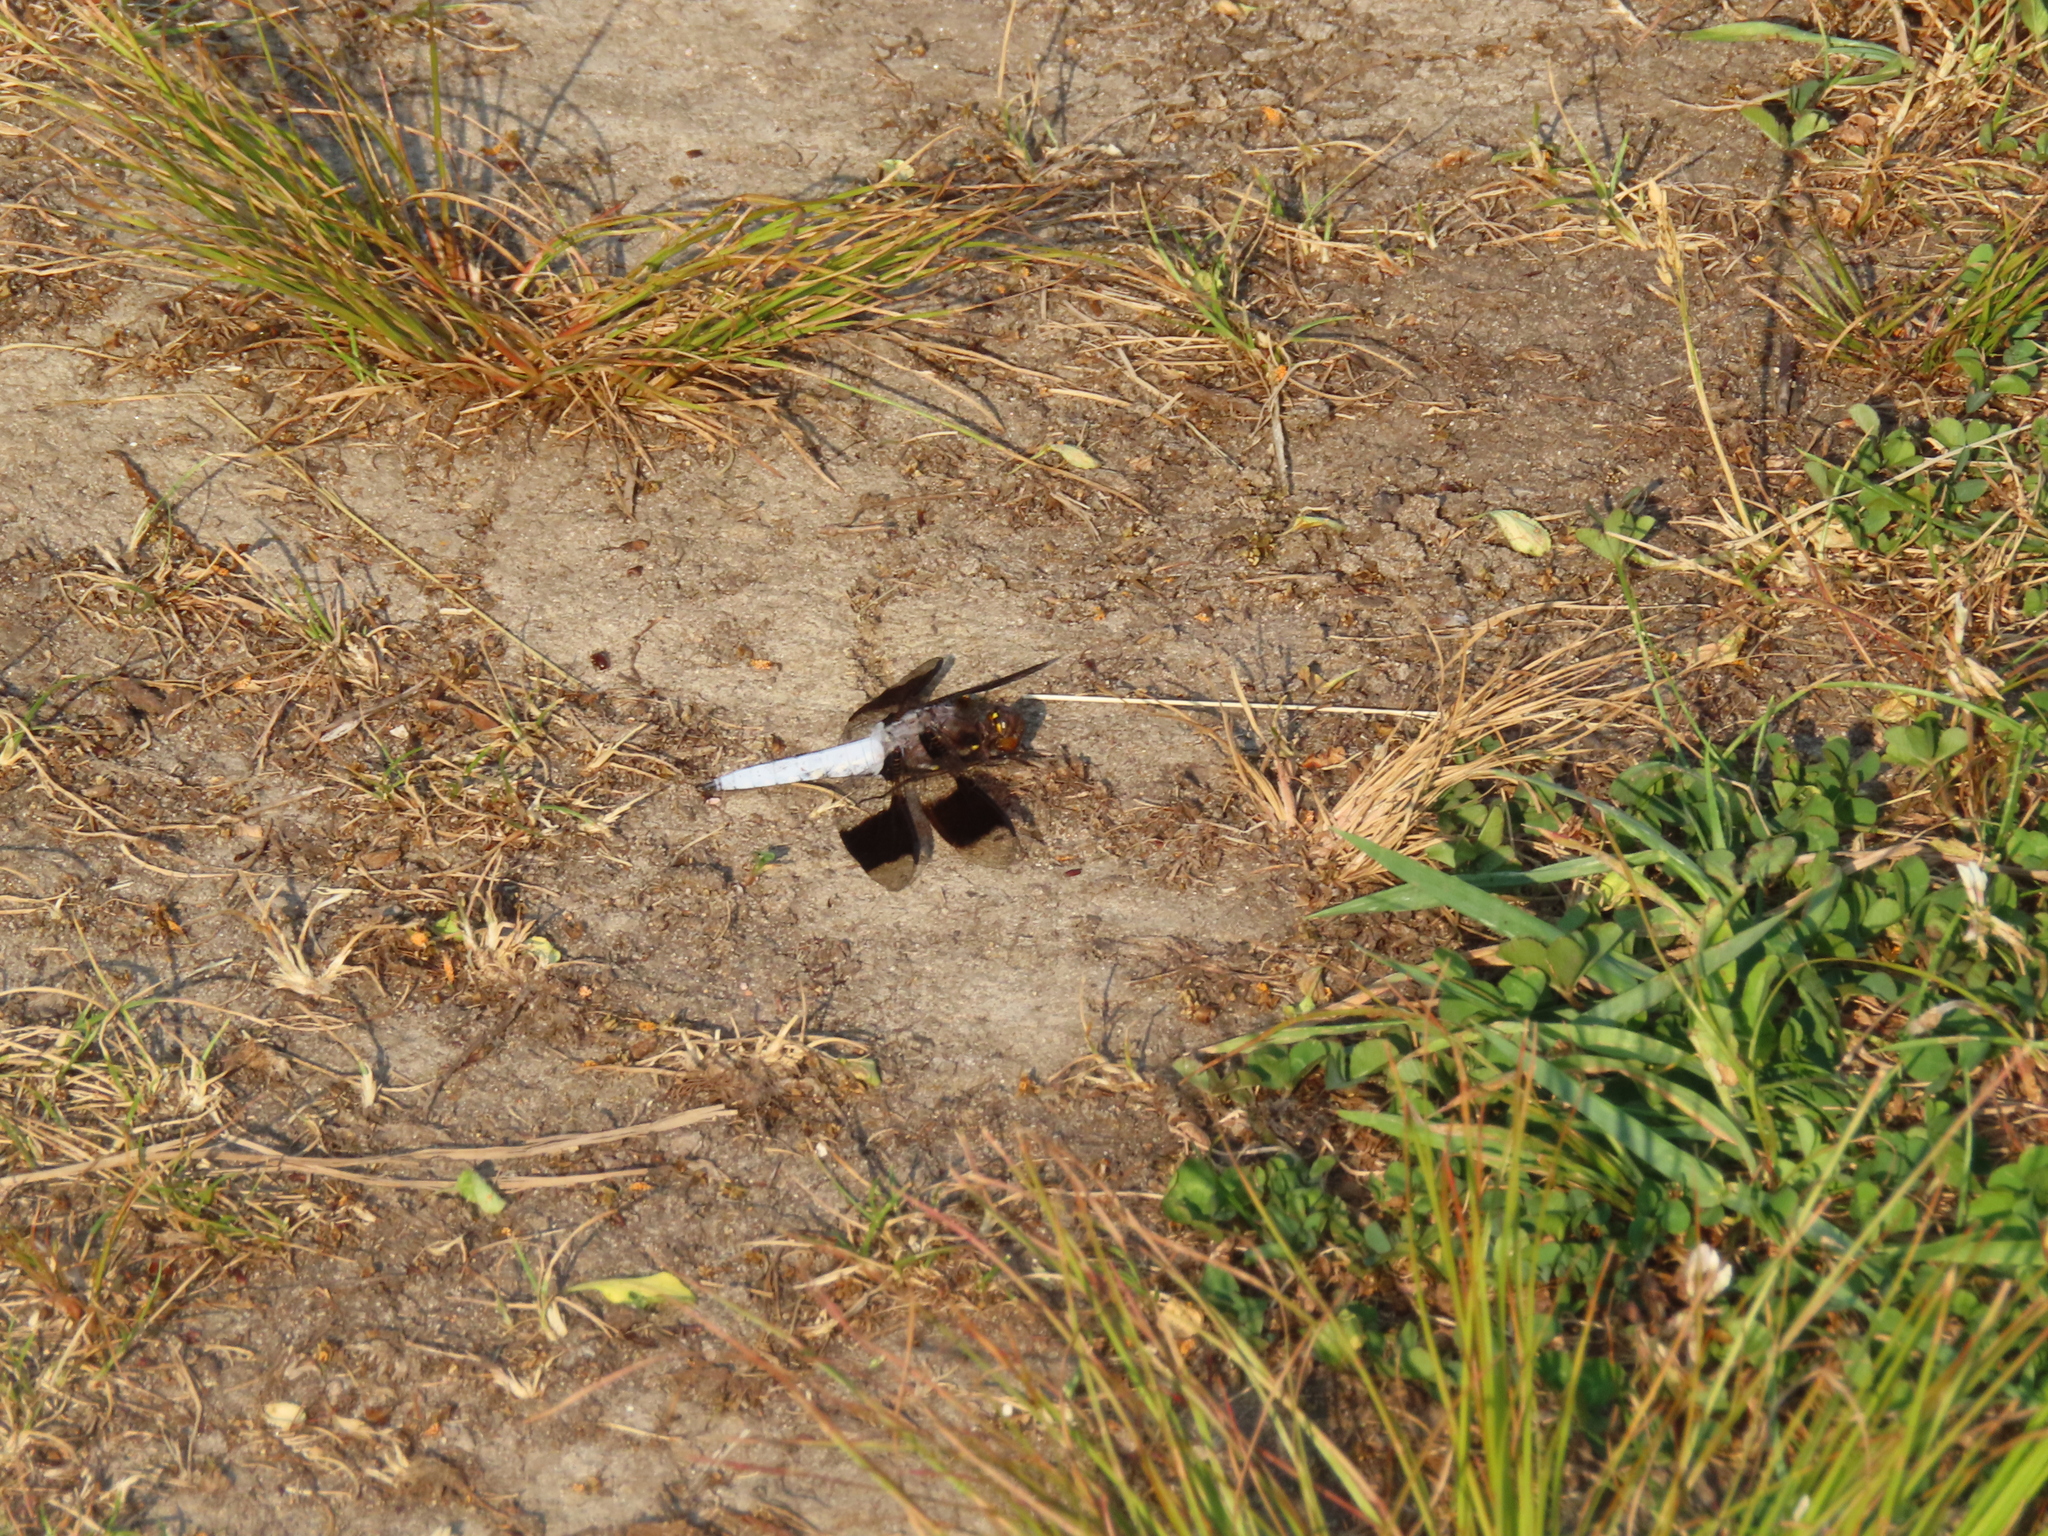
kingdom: Animalia
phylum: Arthropoda
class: Insecta
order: Odonata
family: Libellulidae
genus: Plathemis
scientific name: Plathemis lydia
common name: Common whitetail
